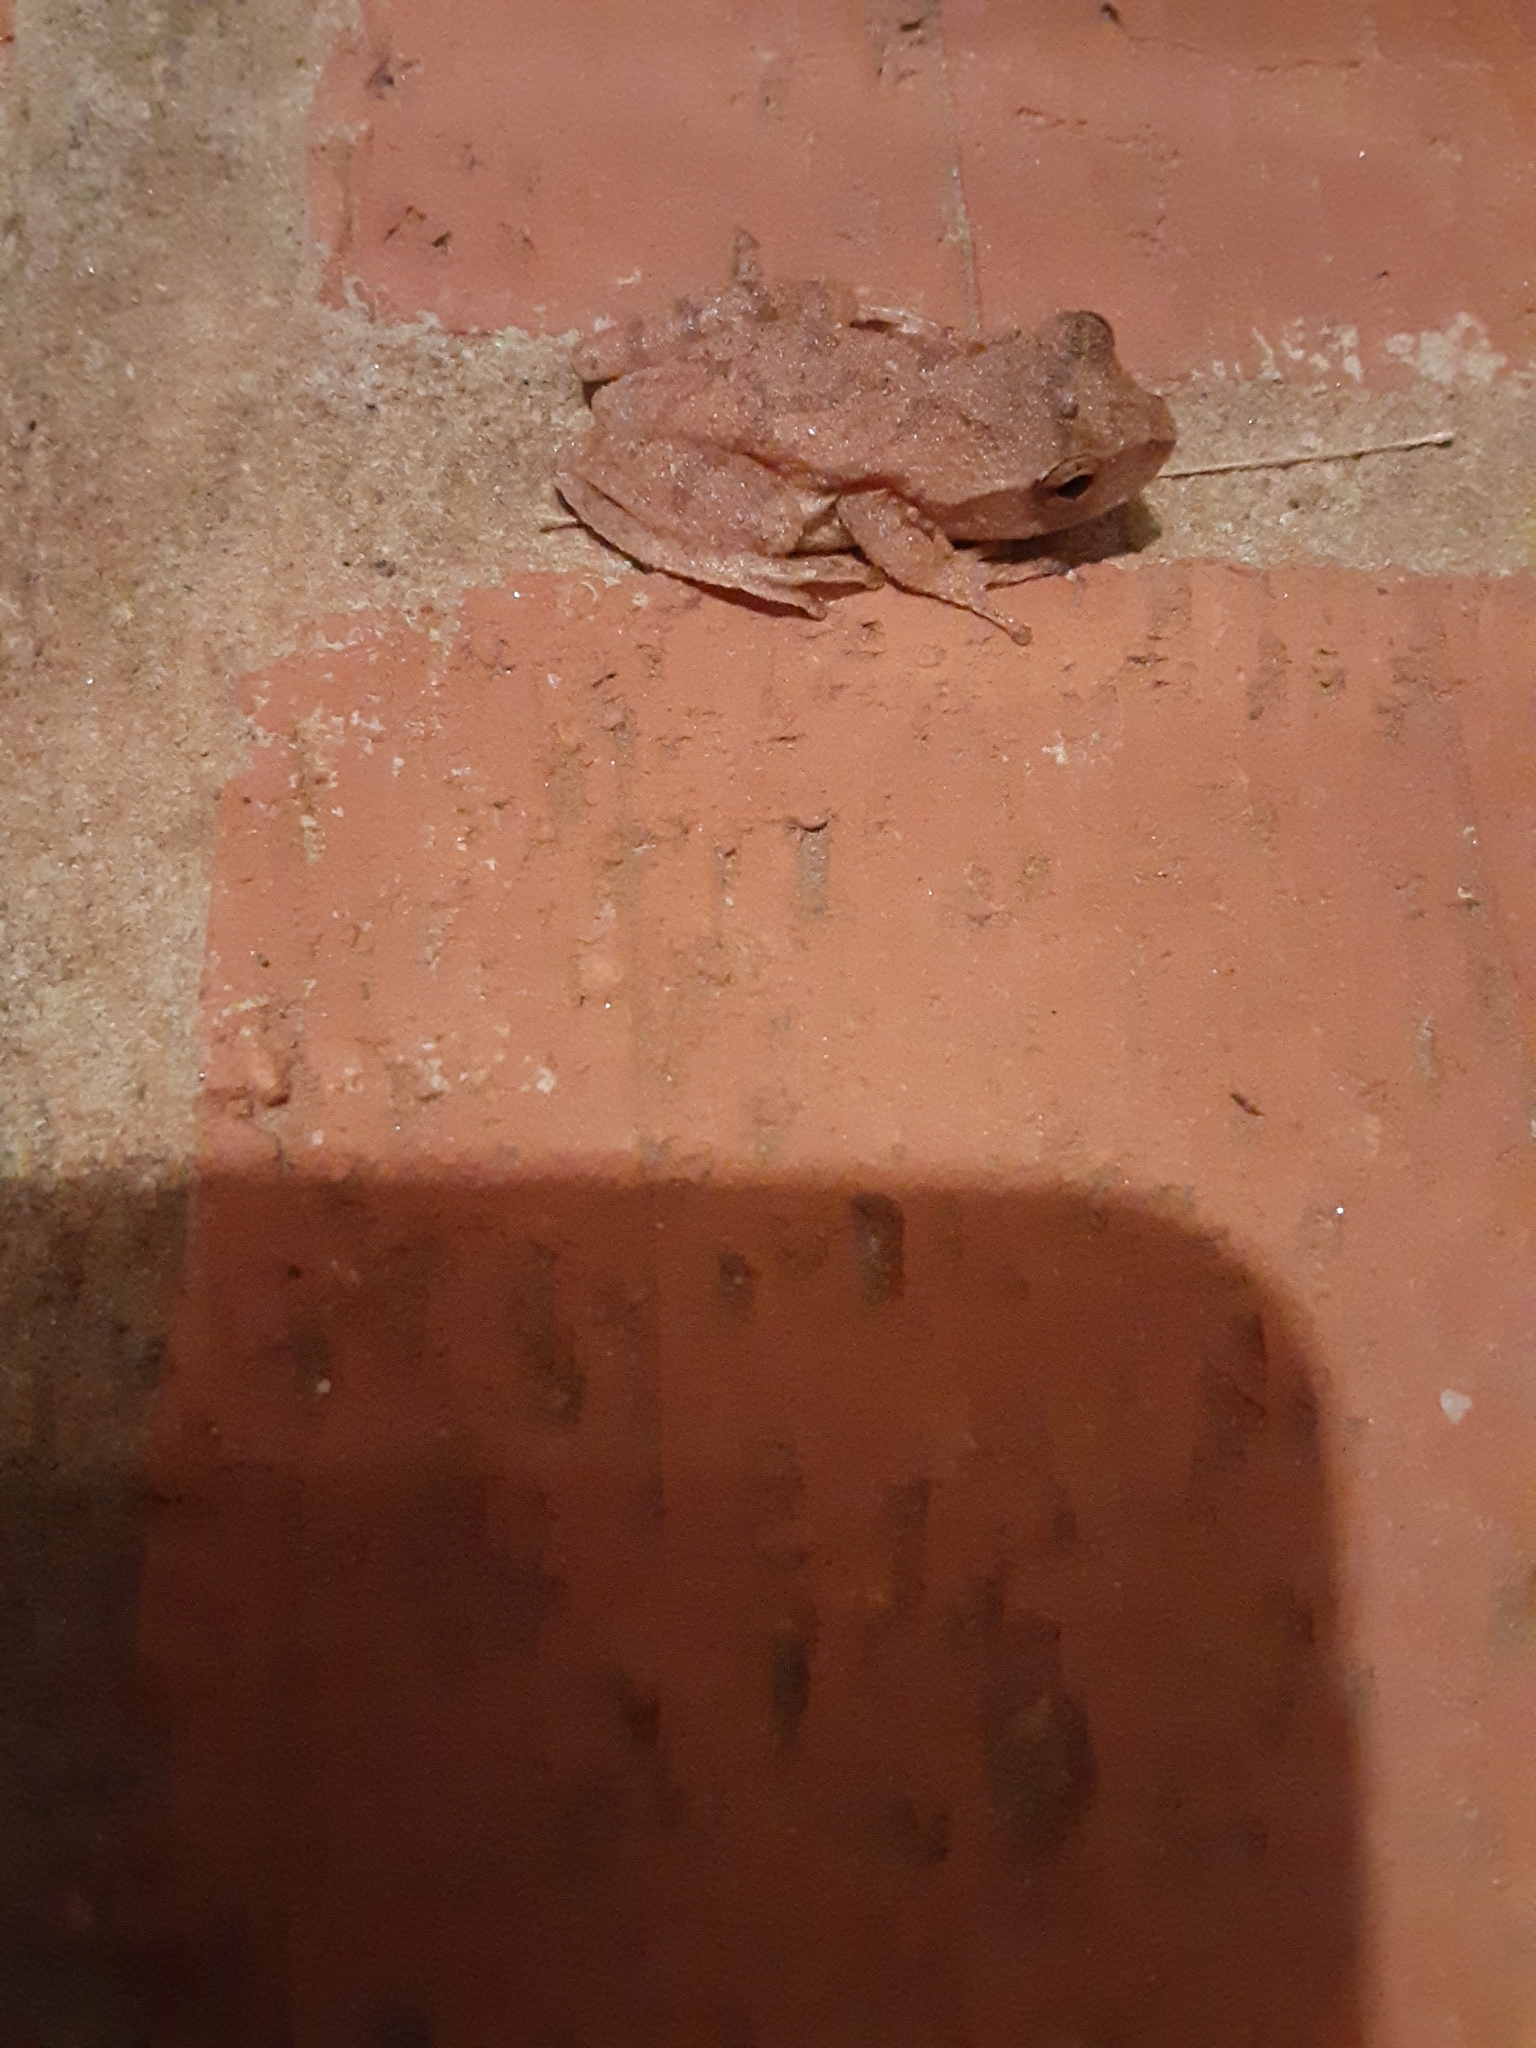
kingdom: Animalia
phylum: Chordata
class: Amphibia
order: Anura
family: Hylidae
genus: Pseudacris
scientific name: Pseudacris crucifer
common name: Spring peeper
